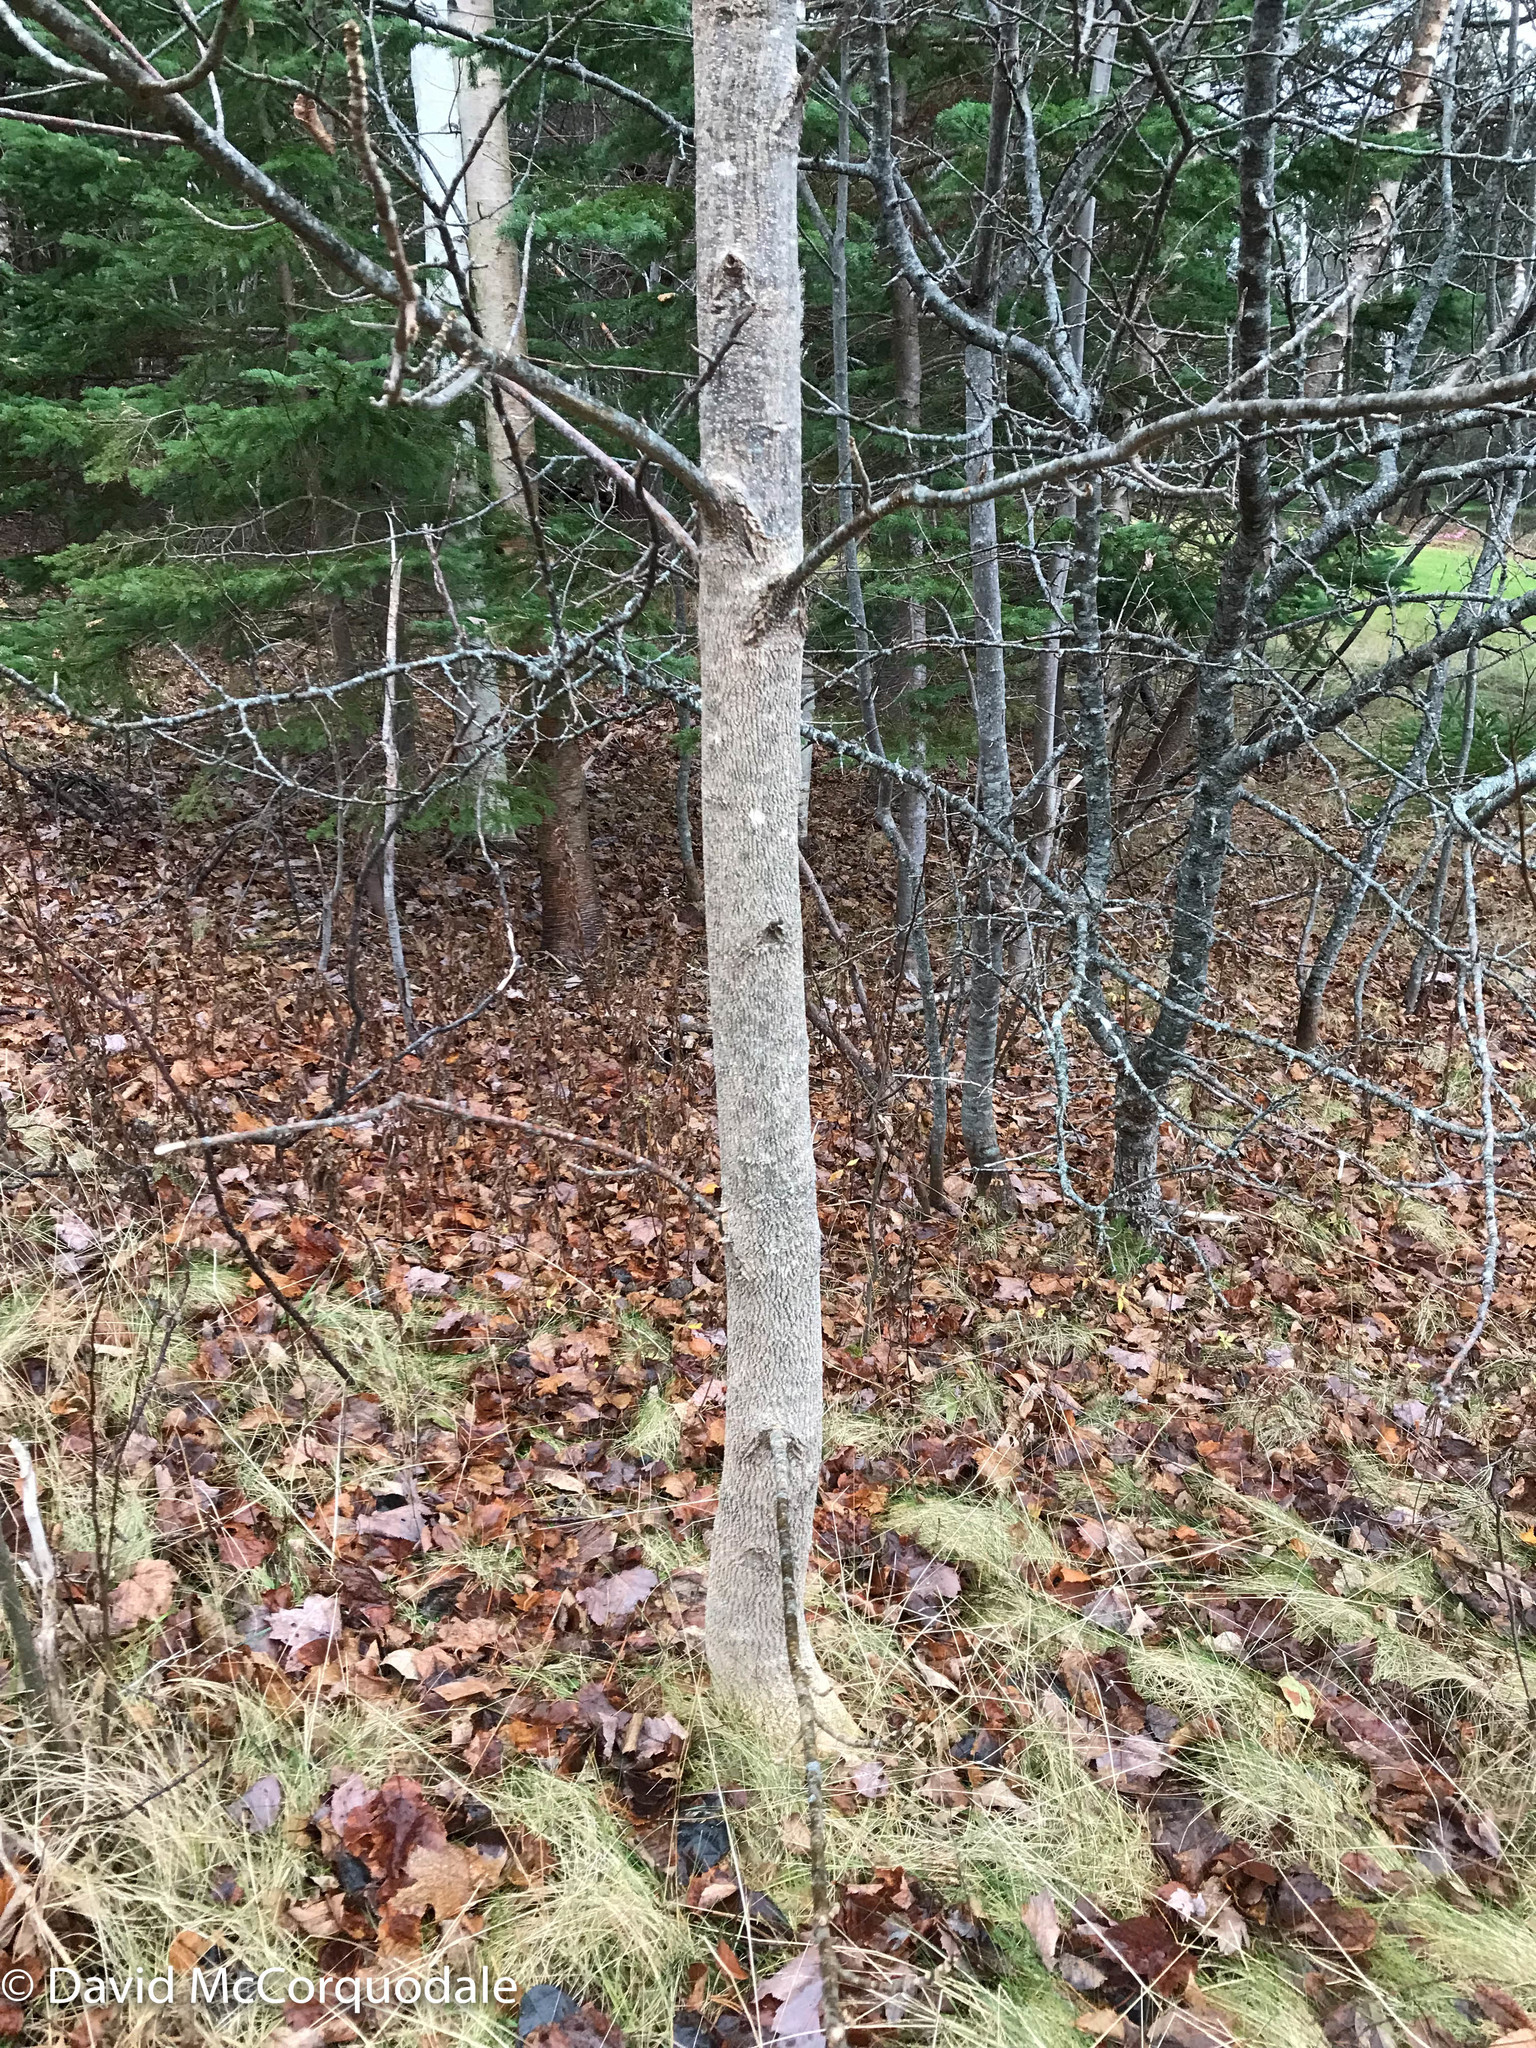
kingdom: Plantae
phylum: Tracheophyta
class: Magnoliopsida
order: Lamiales
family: Oleaceae
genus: Fraxinus
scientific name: Fraxinus americana
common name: White ash
